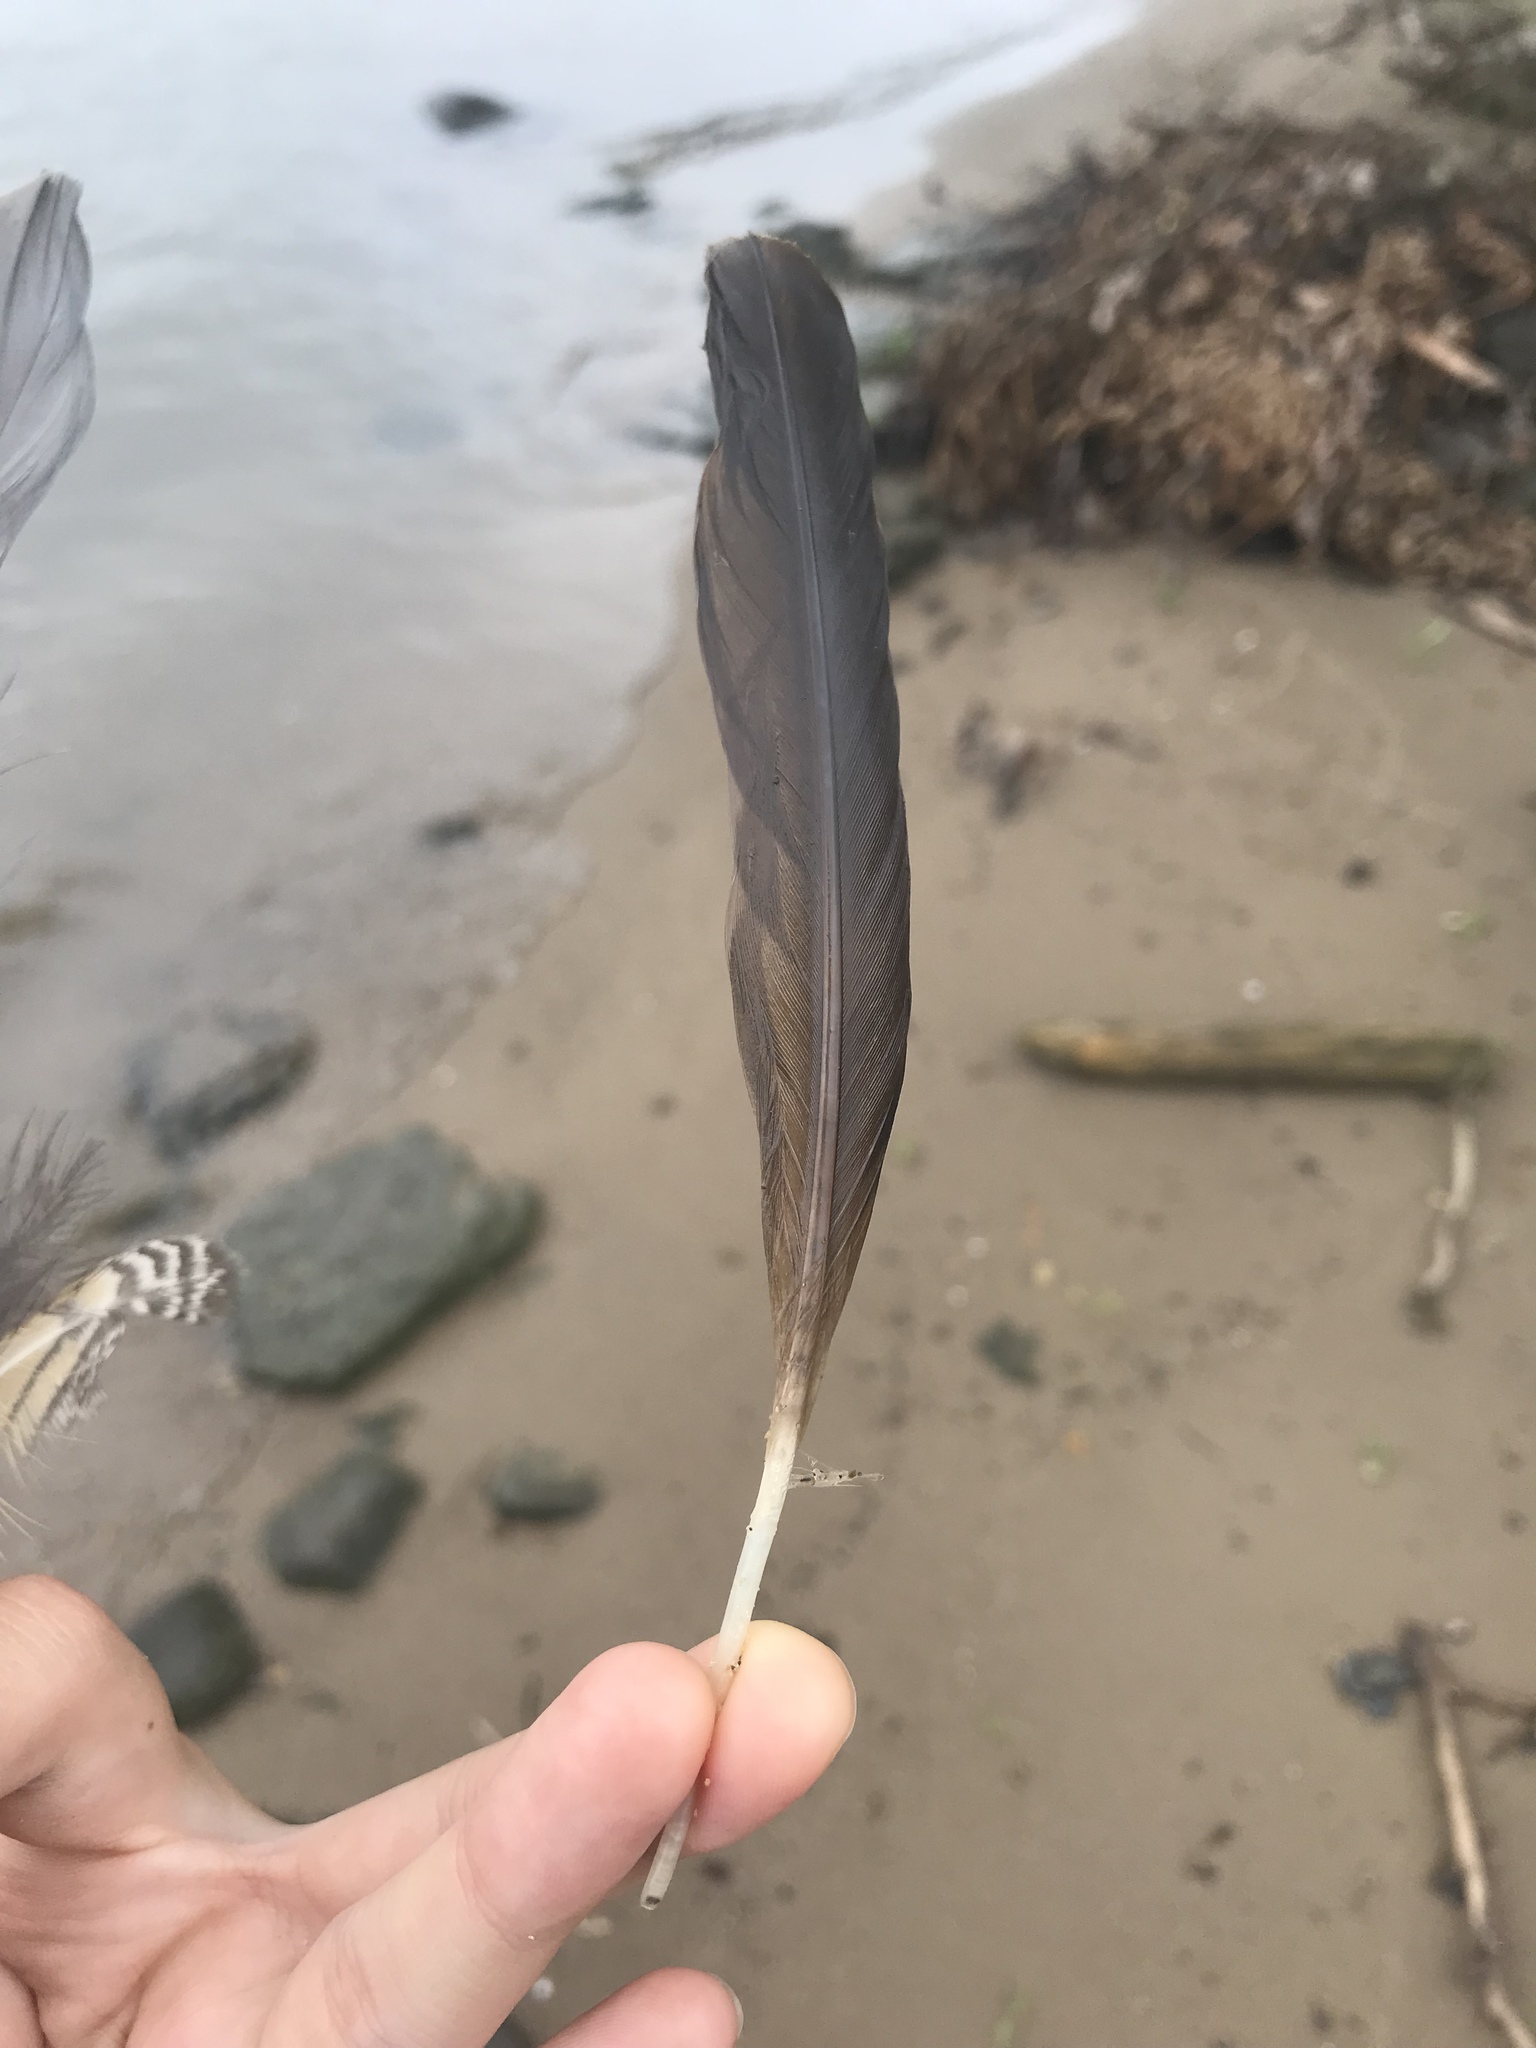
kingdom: Animalia
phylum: Chordata
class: Aves
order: Suliformes
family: Phalacrocoracidae
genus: Phalacrocorax
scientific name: Phalacrocorax auritus
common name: Double-crested cormorant
